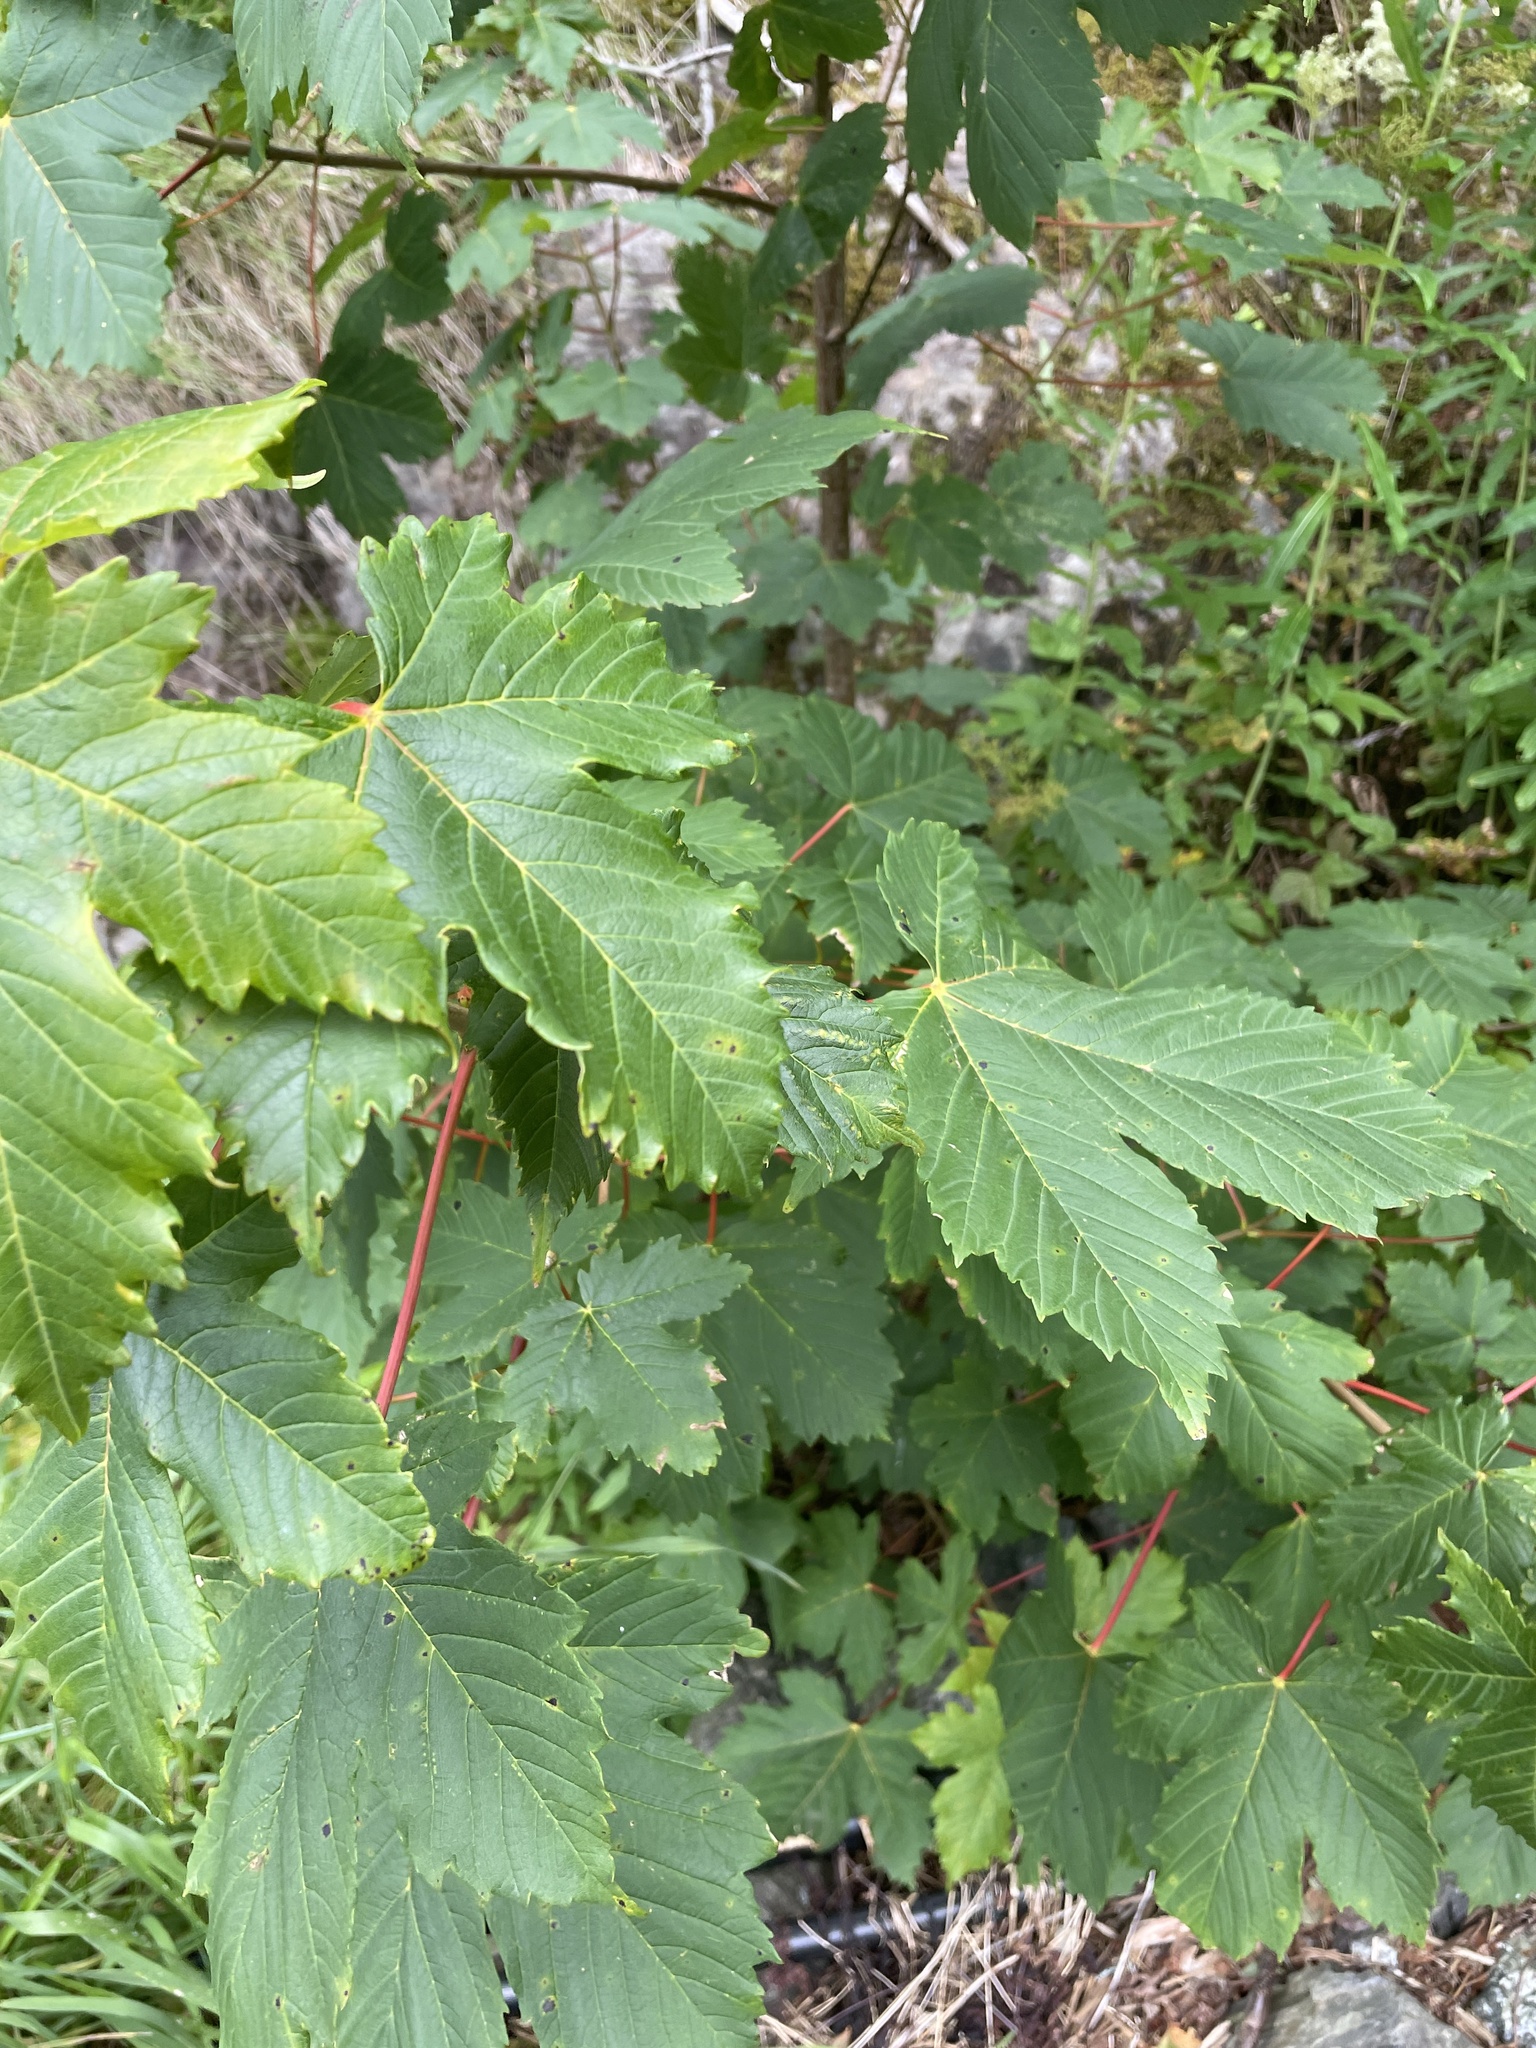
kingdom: Plantae
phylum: Tracheophyta
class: Magnoliopsida
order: Sapindales
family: Sapindaceae
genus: Acer
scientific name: Acer pseudoplatanus
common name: Sycamore
